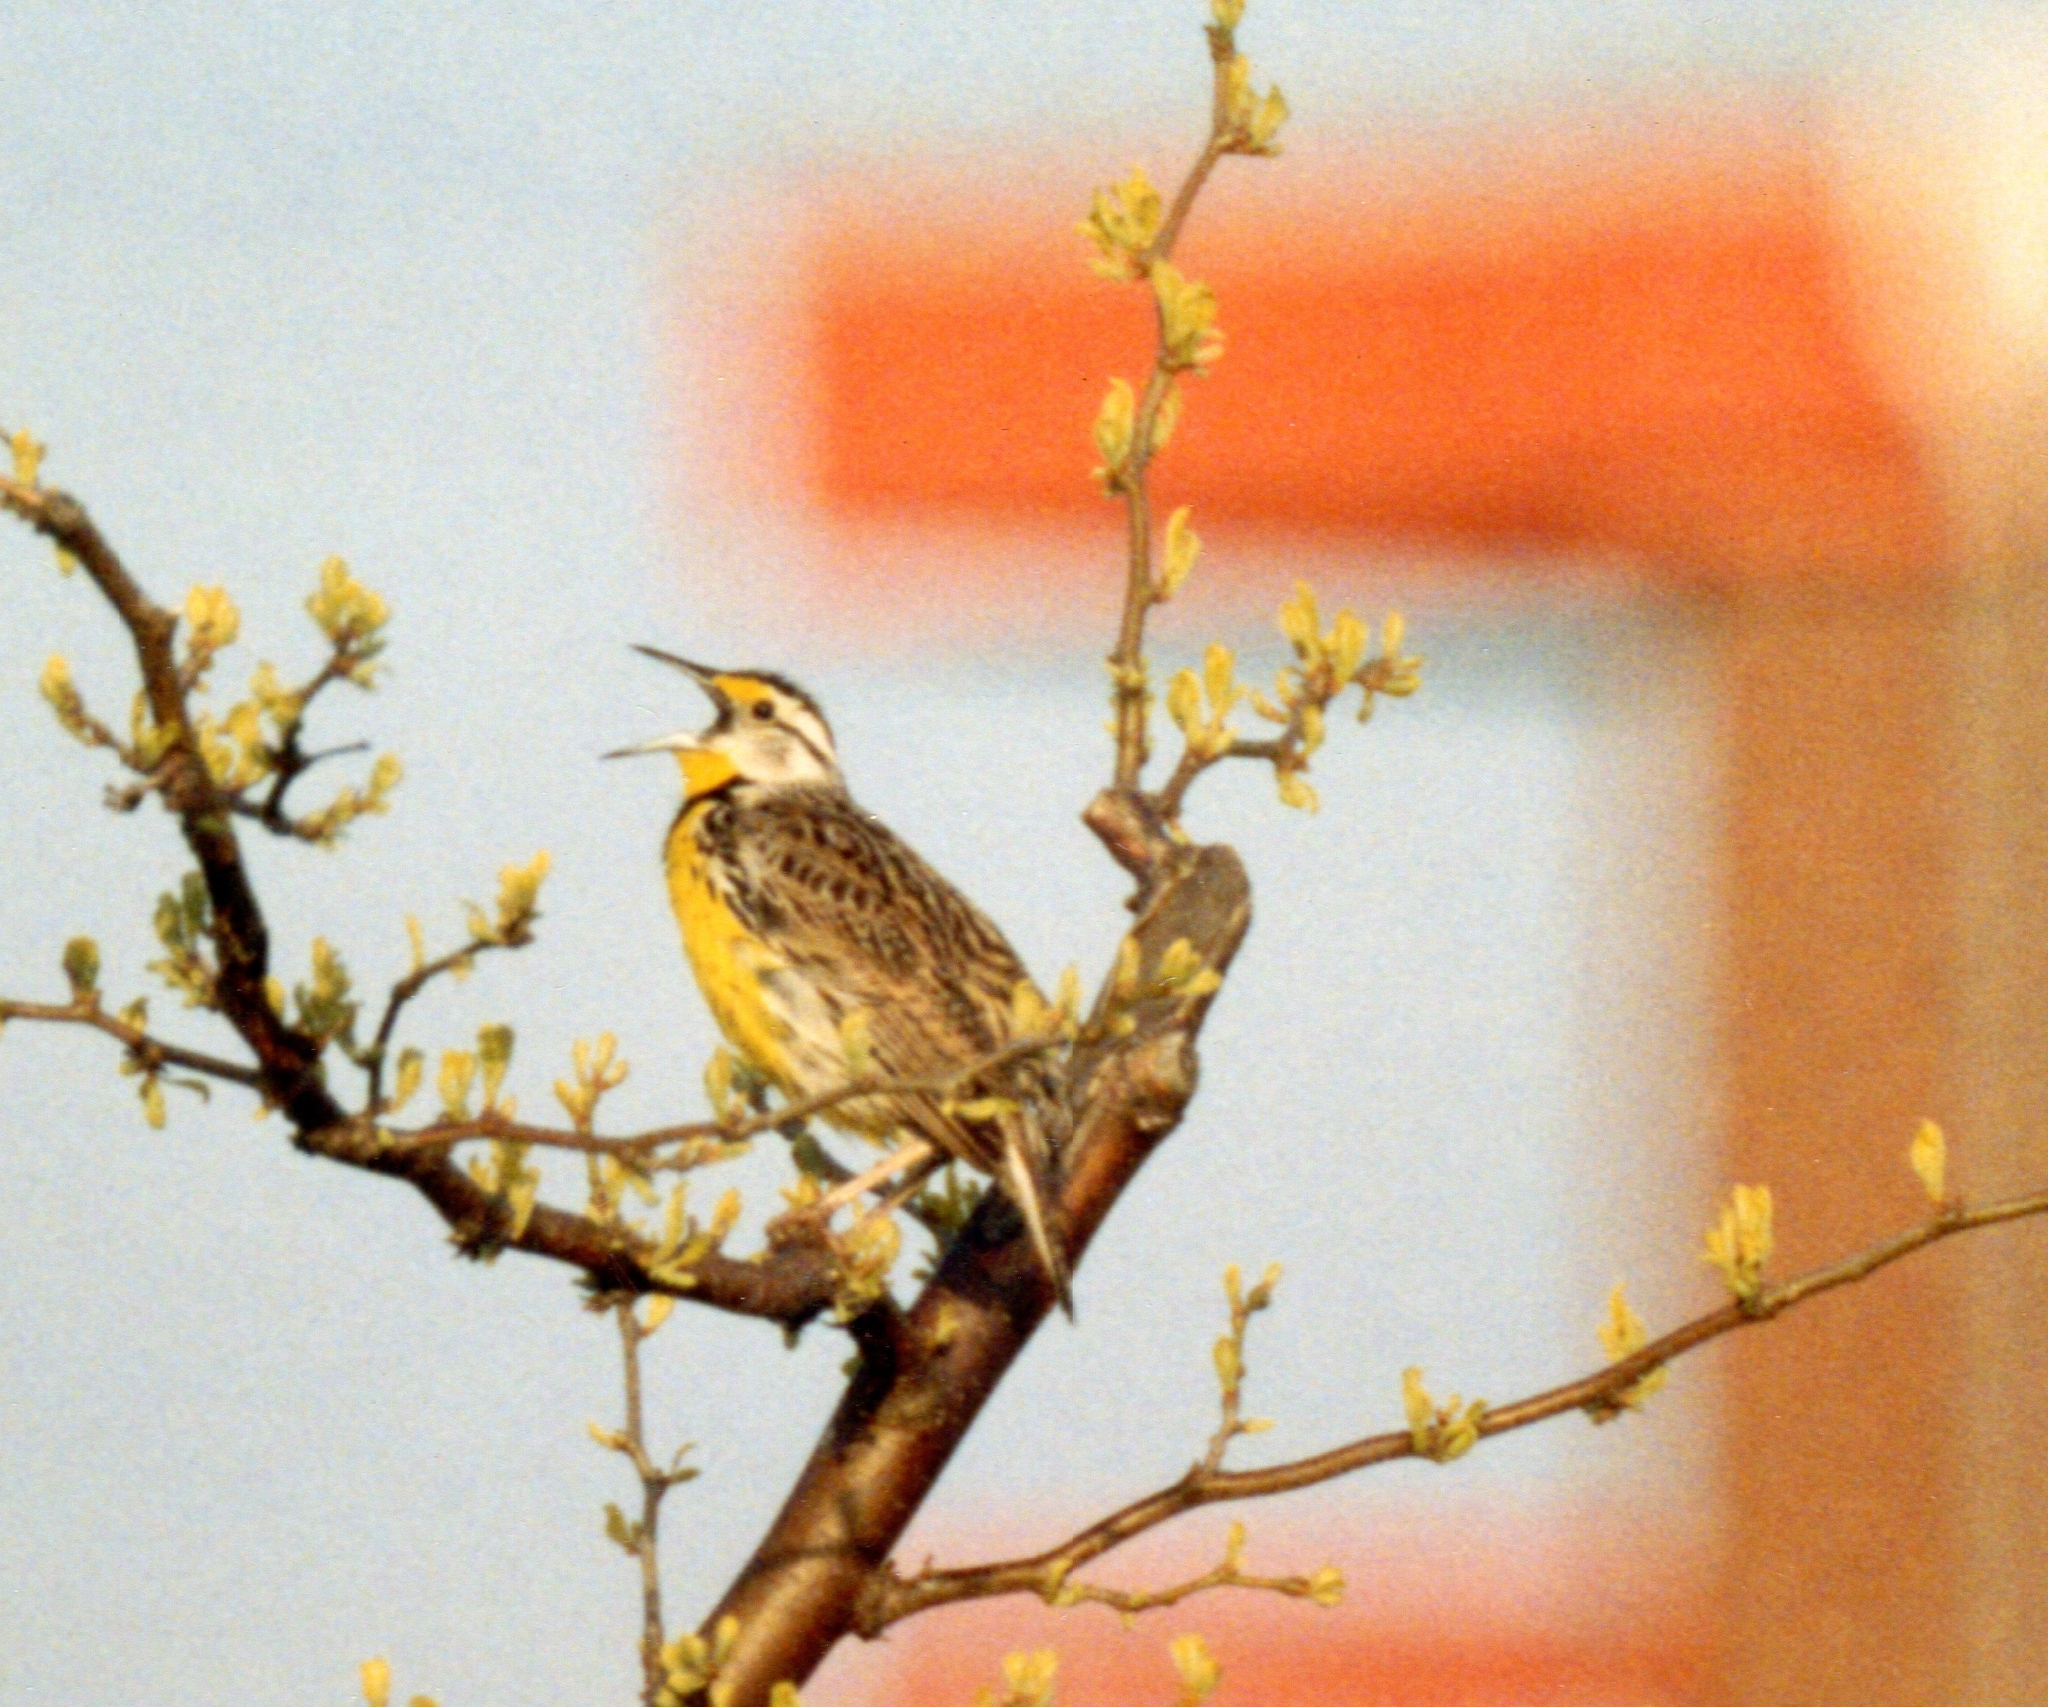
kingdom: Animalia
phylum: Chordata
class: Aves
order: Passeriformes
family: Icteridae
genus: Sturnella
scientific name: Sturnella magna
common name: Eastern meadowlark
